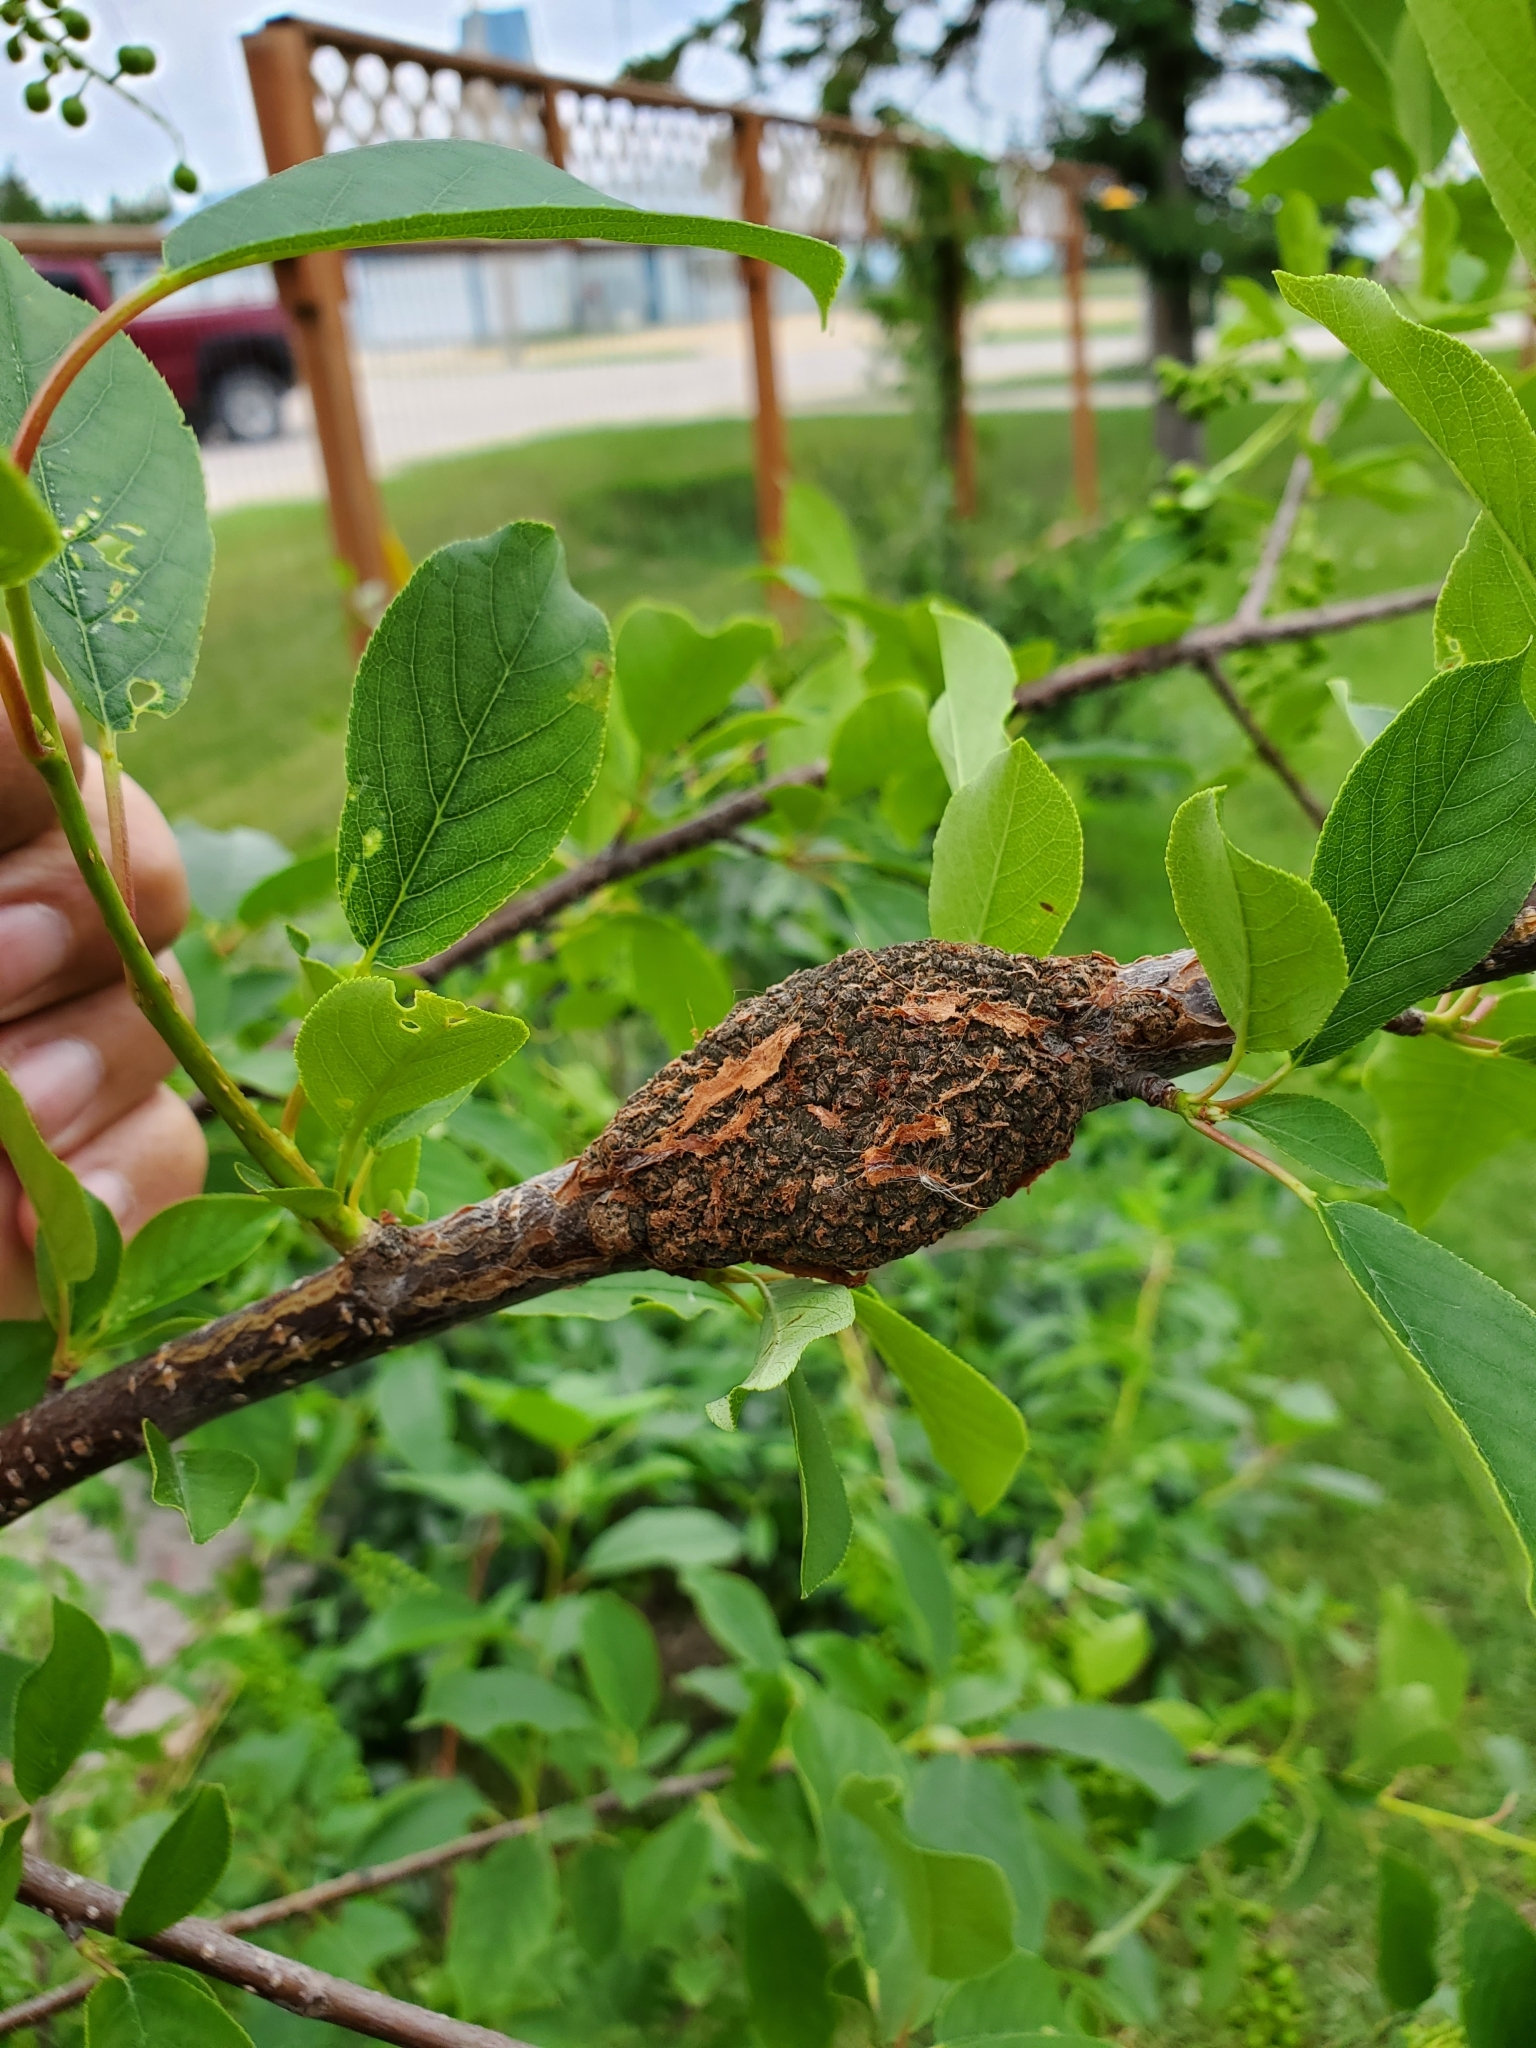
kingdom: Fungi
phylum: Ascomycota
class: Dothideomycetes
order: Venturiales
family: Venturiaceae
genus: Apiosporina
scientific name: Apiosporina morbosa
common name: Black knot
